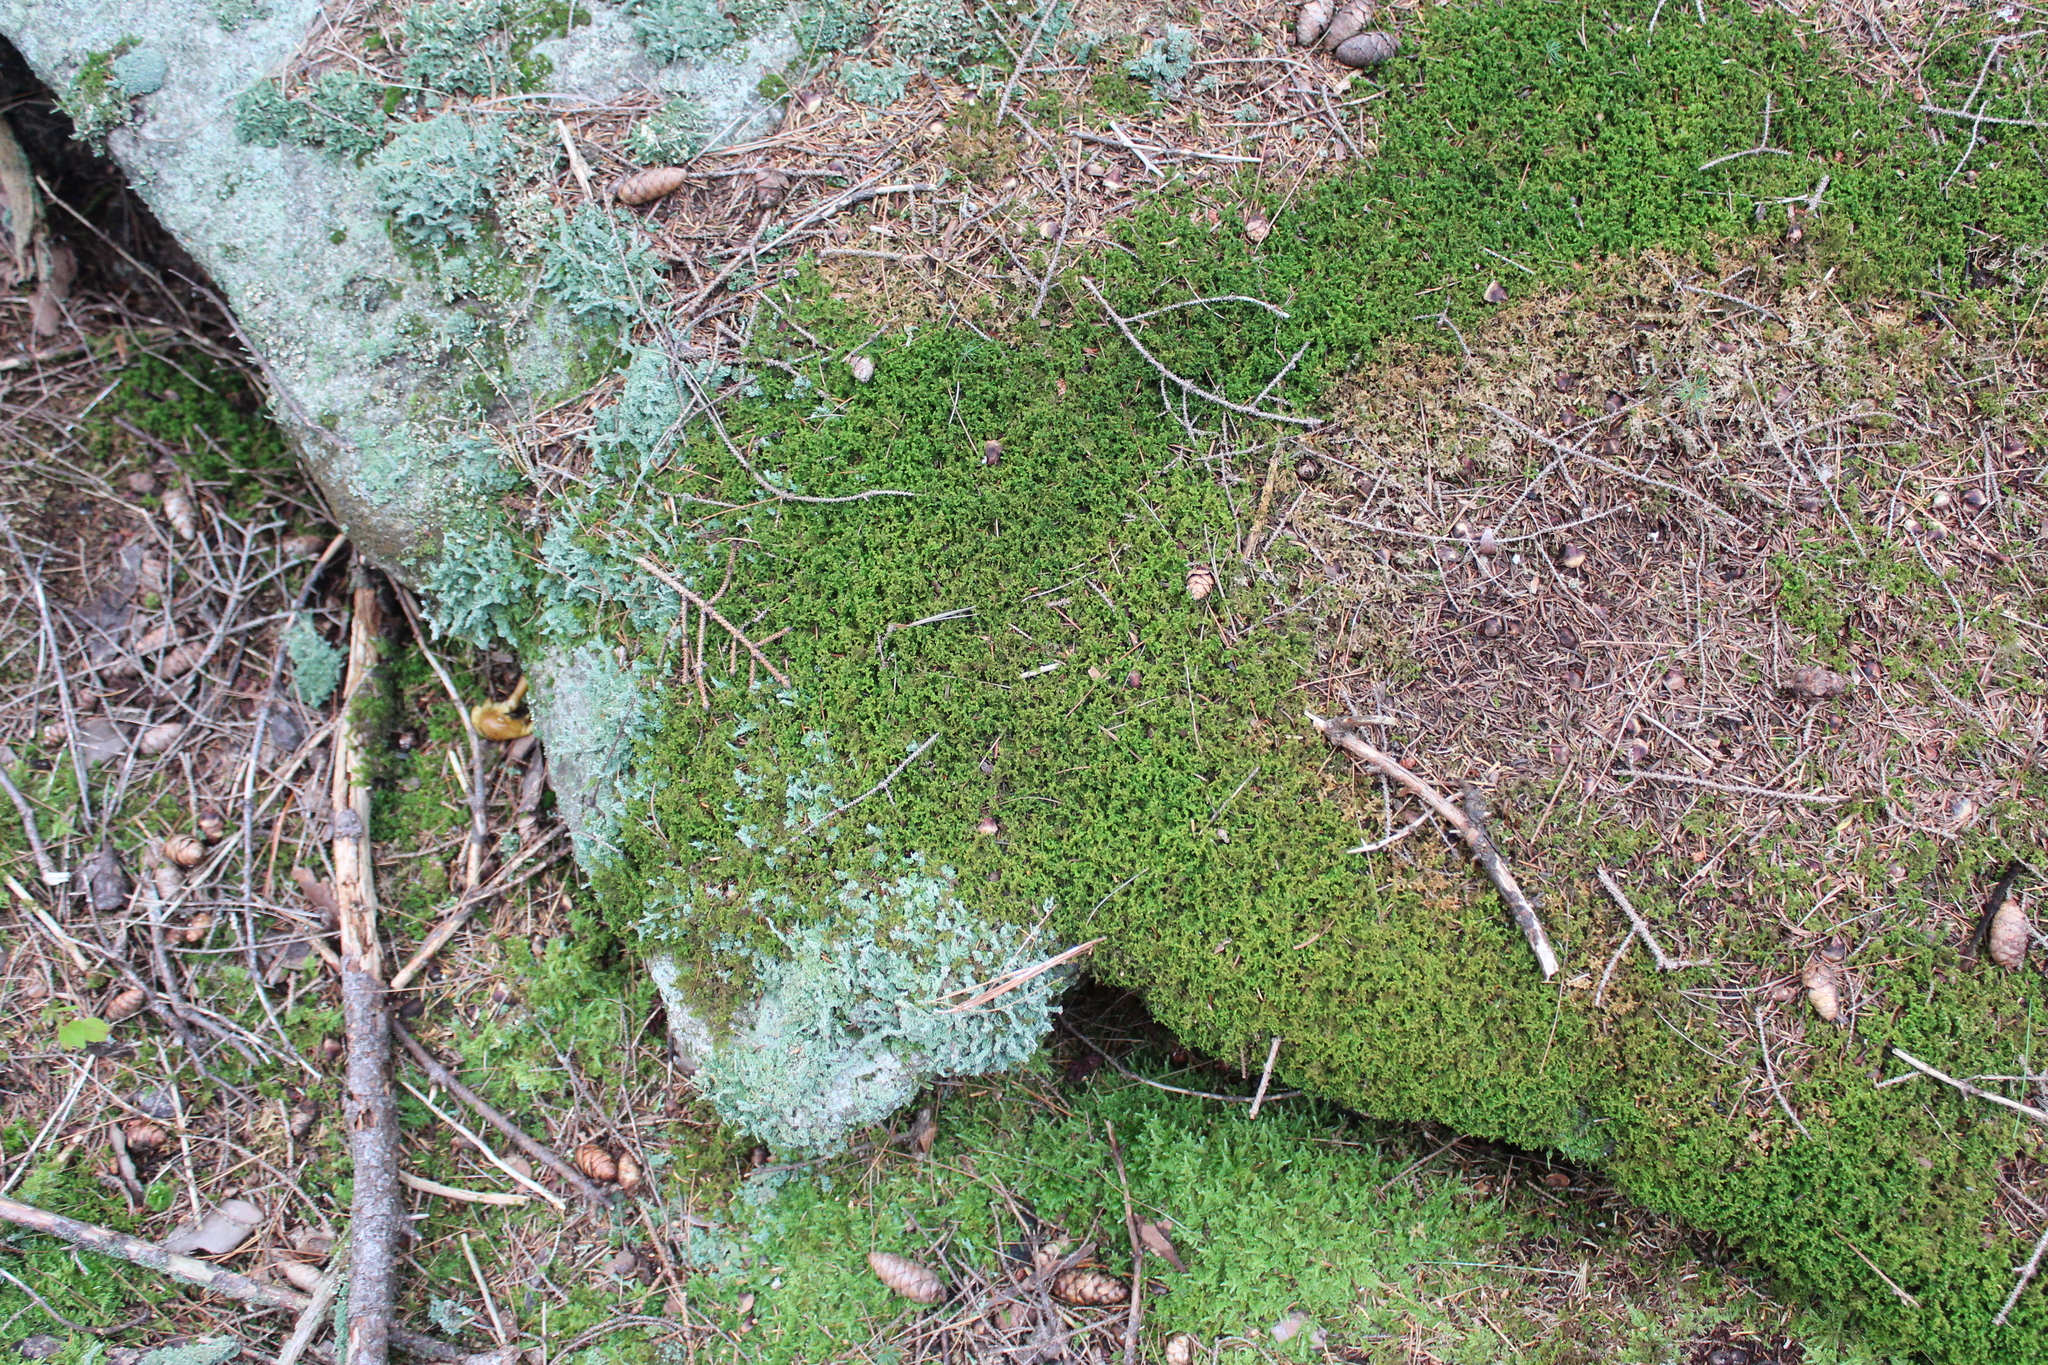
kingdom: Plantae
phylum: Marchantiophyta
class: Jungermanniopsida
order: Ptilidiales
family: Ptilidiaceae
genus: Ptilidium
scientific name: Ptilidium ciliare
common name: Ciliate fringewort
